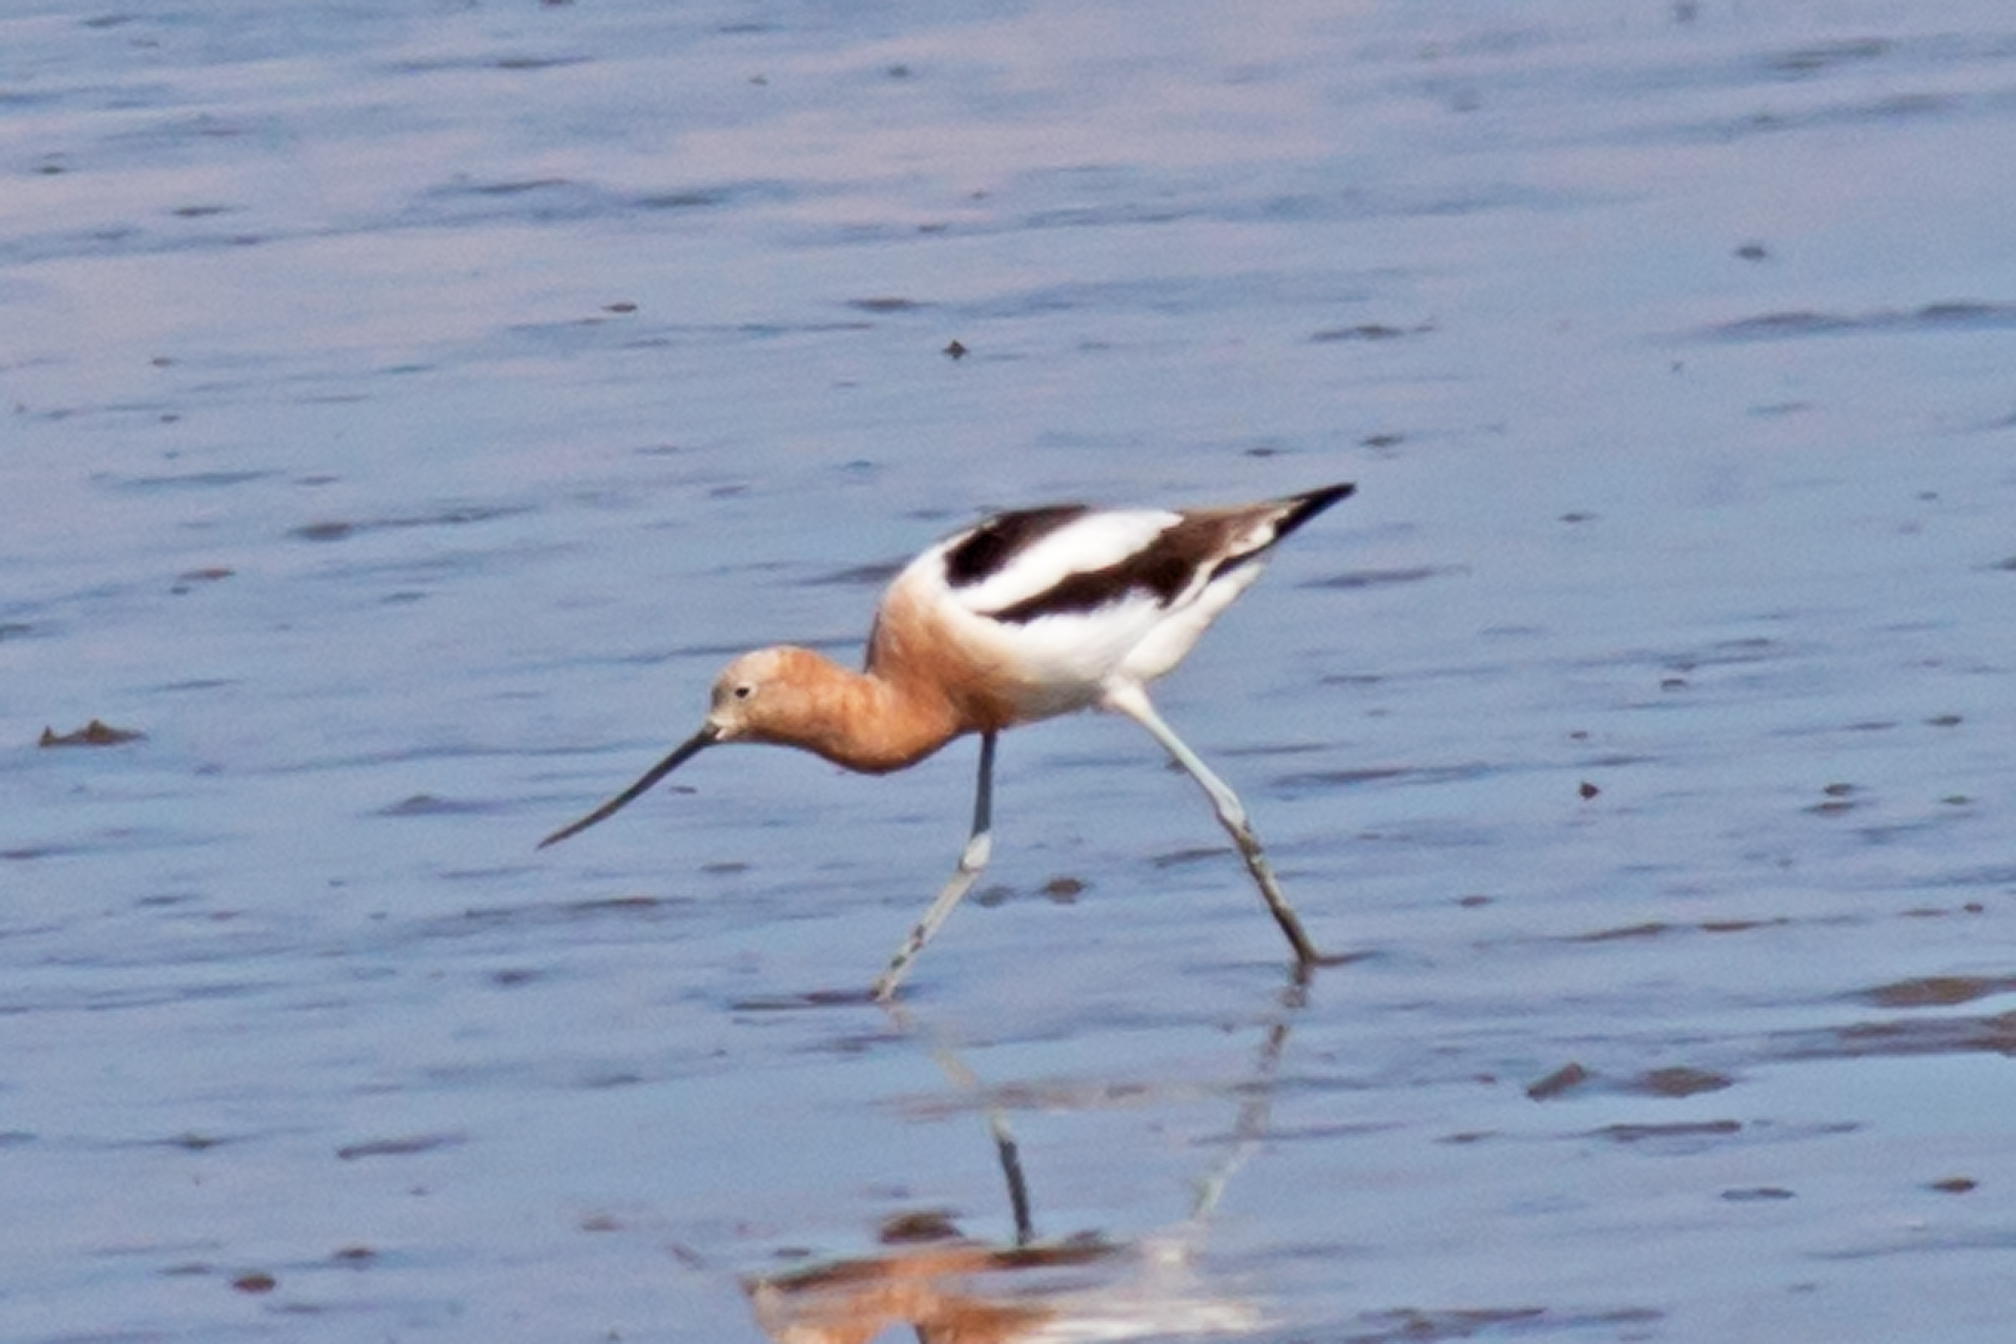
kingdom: Animalia
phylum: Chordata
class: Aves
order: Charadriiformes
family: Recurvirostridae
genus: Recurvirostra
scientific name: Recurvirostra americana
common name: American avocet
